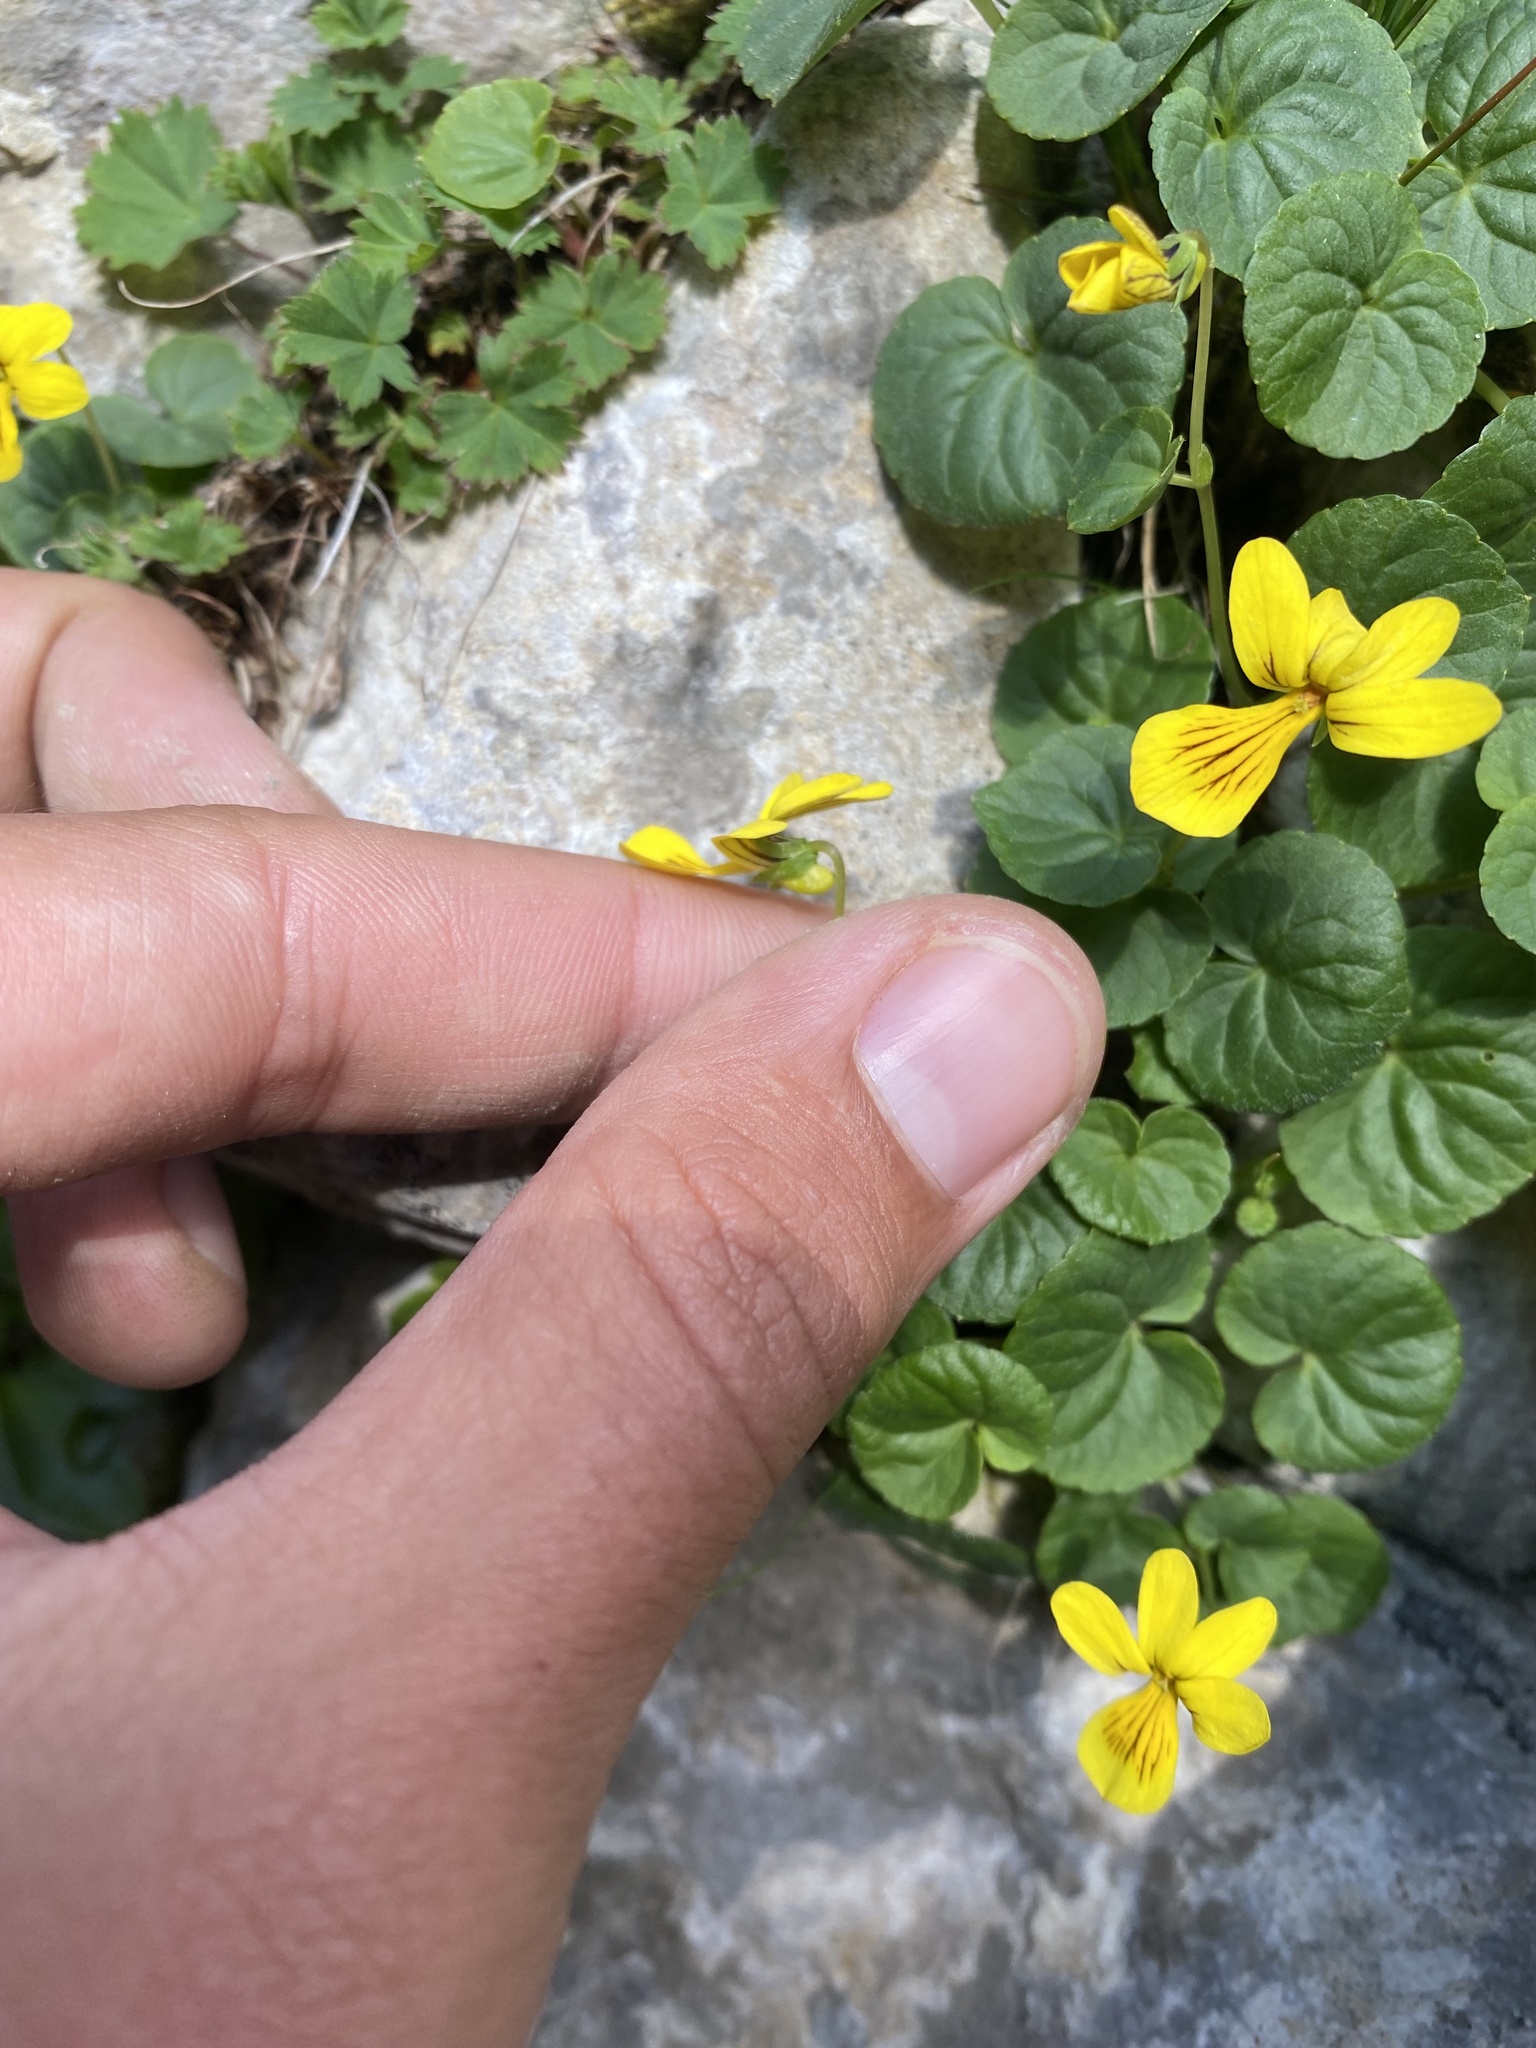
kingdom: Plantae
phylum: Tracheophyta
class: Magnoliopsida
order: Malpighiales
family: Violaceae
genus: Viola
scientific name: Viola caucasica
